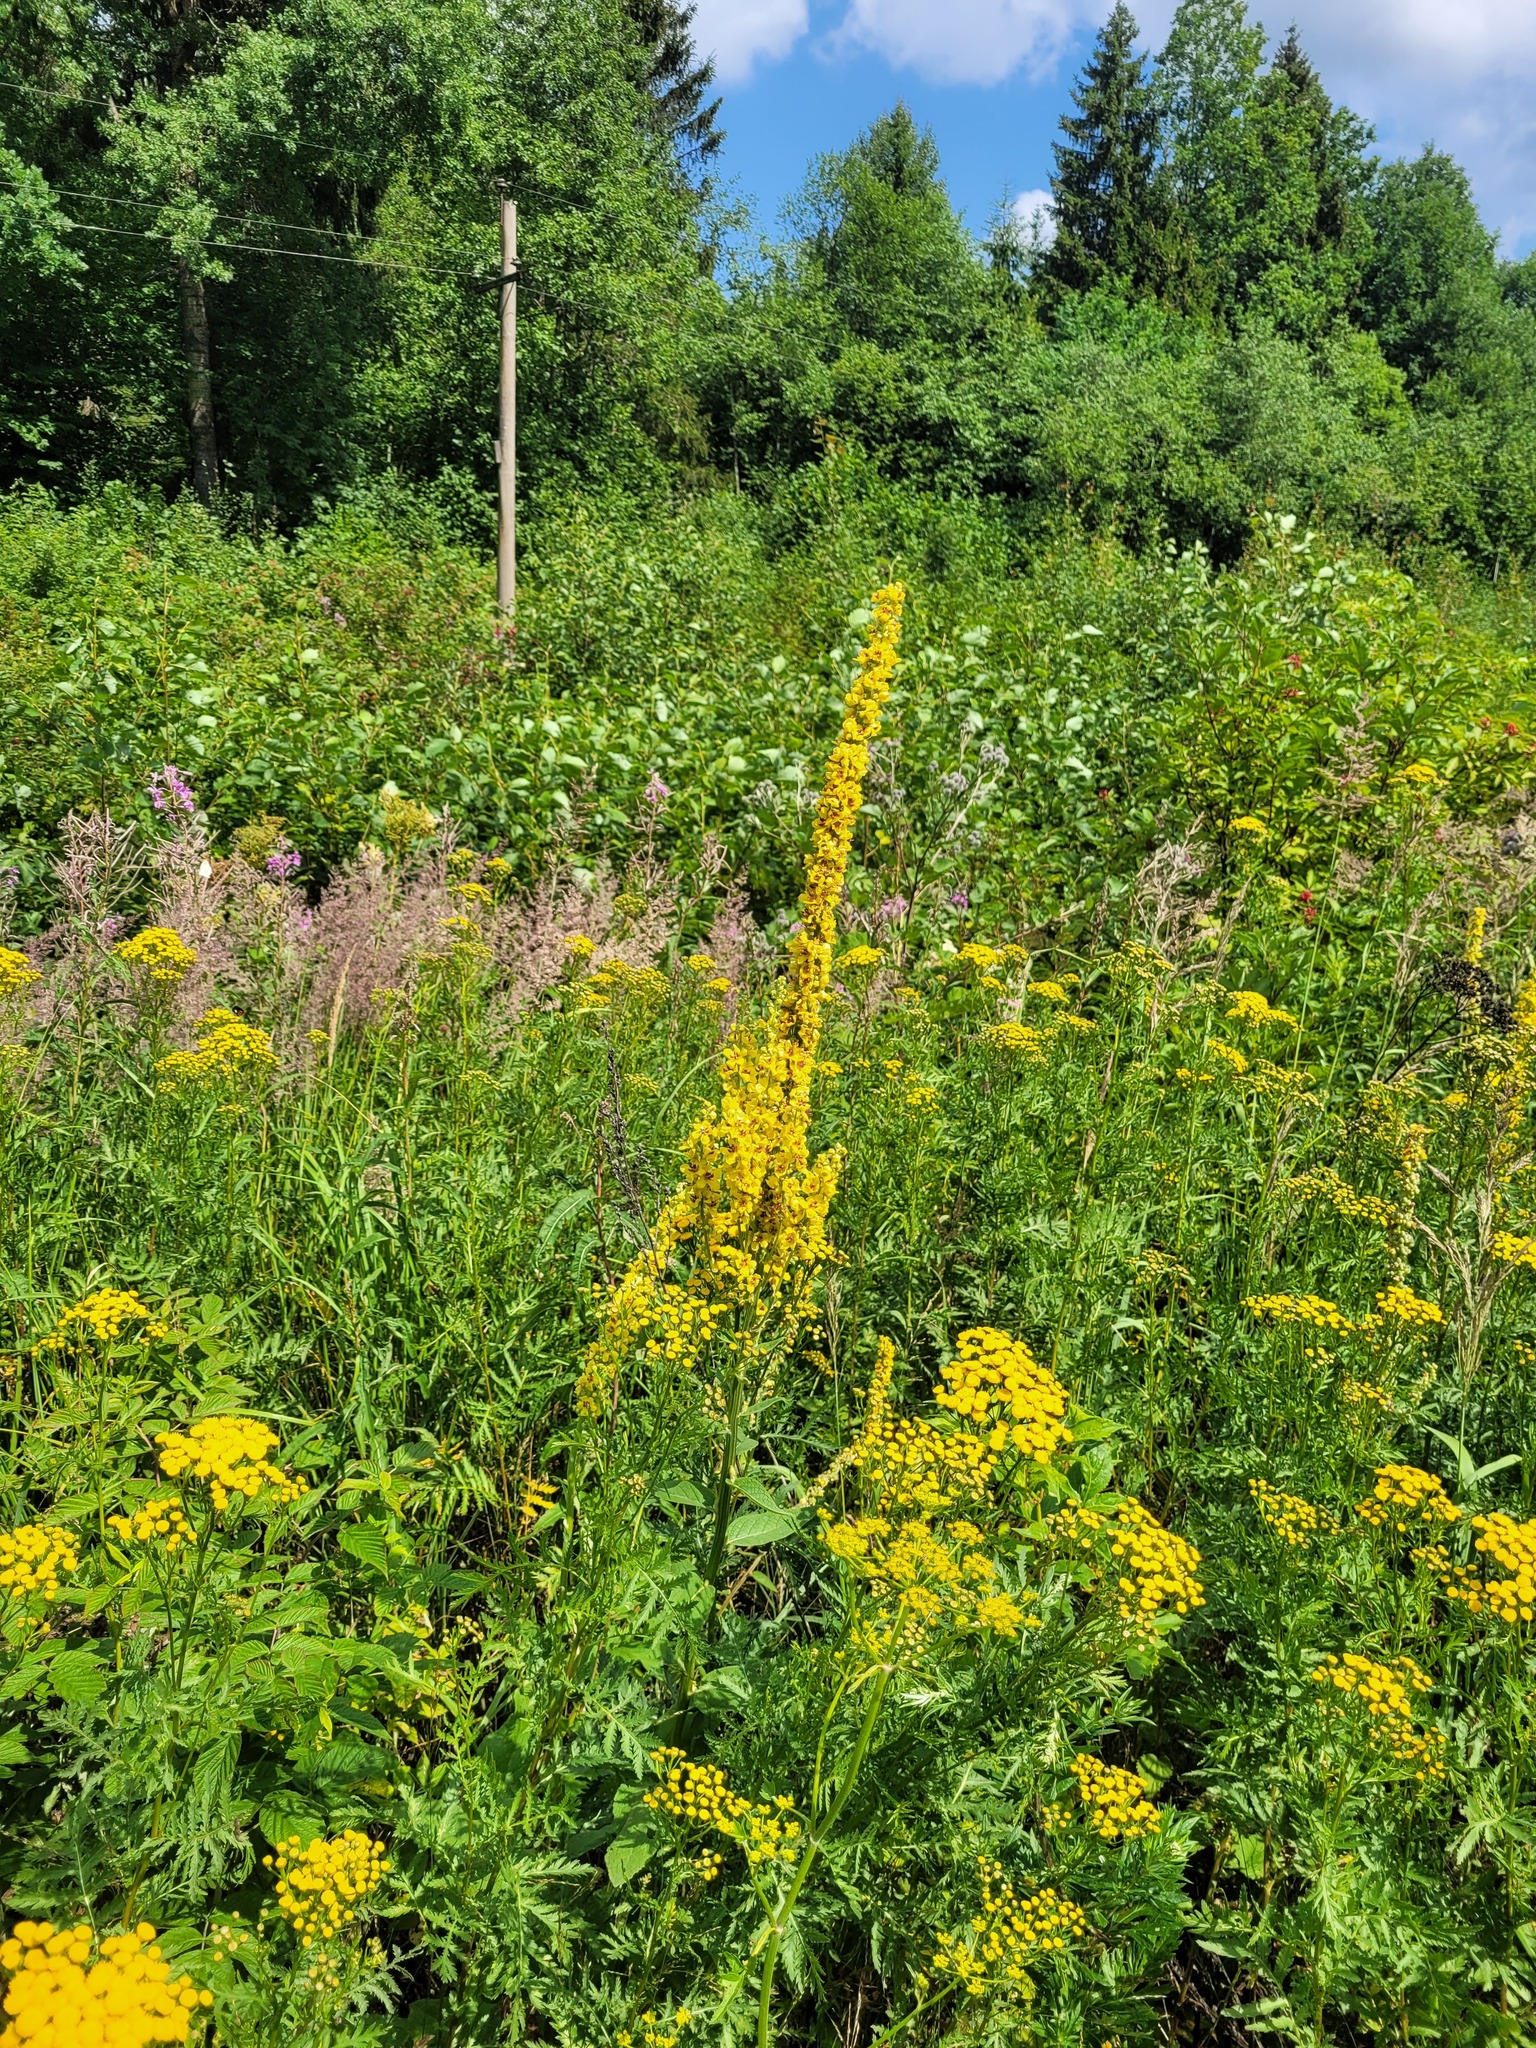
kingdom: Plantae
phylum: Tracheophyta
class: Magnoliopsida
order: Lamiales
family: Scrophulariaceae
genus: Verbascum
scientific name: Verbascum nigrum
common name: Dark mullein
